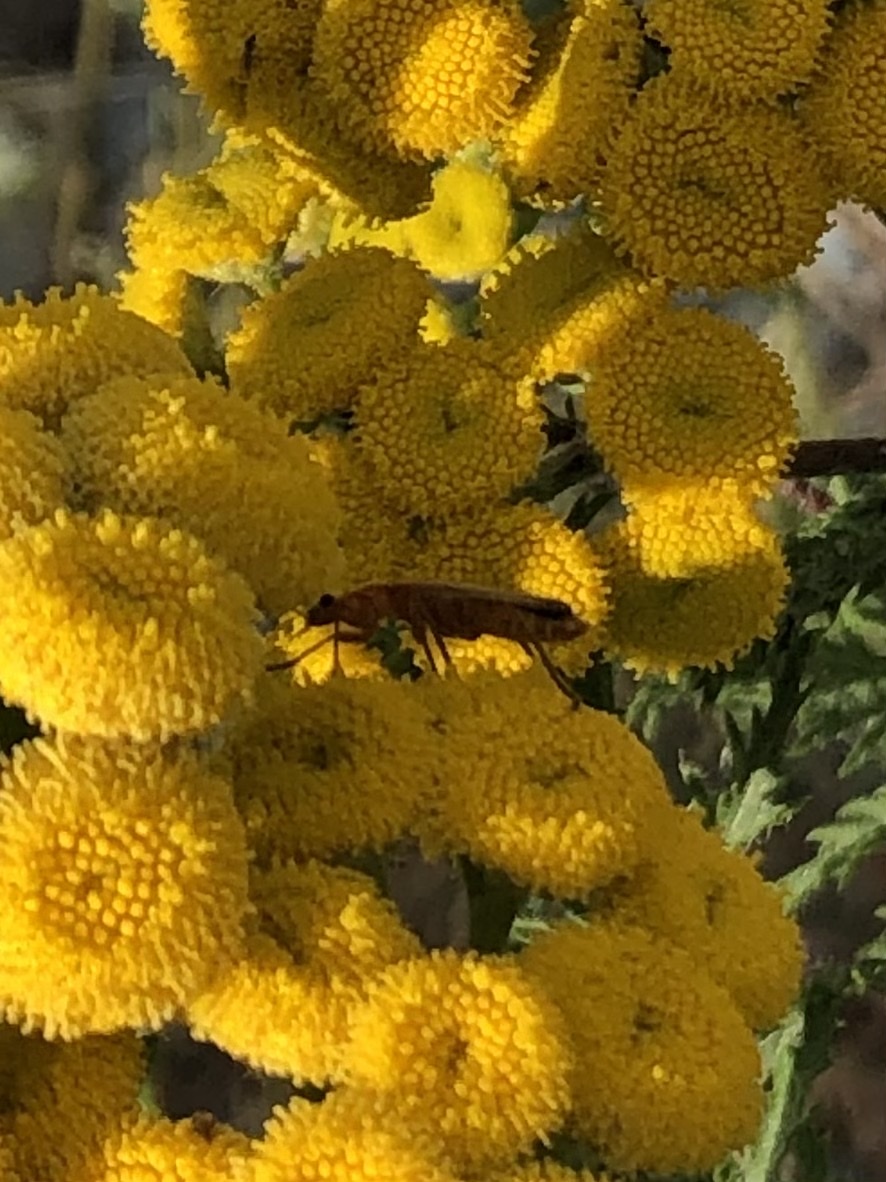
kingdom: Animalia
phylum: Arthropoda
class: Insecta
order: Coleoptera
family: Cantharidae
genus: Rhagonycha
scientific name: Rhagonycha fulva
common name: Common red soldier beetle
